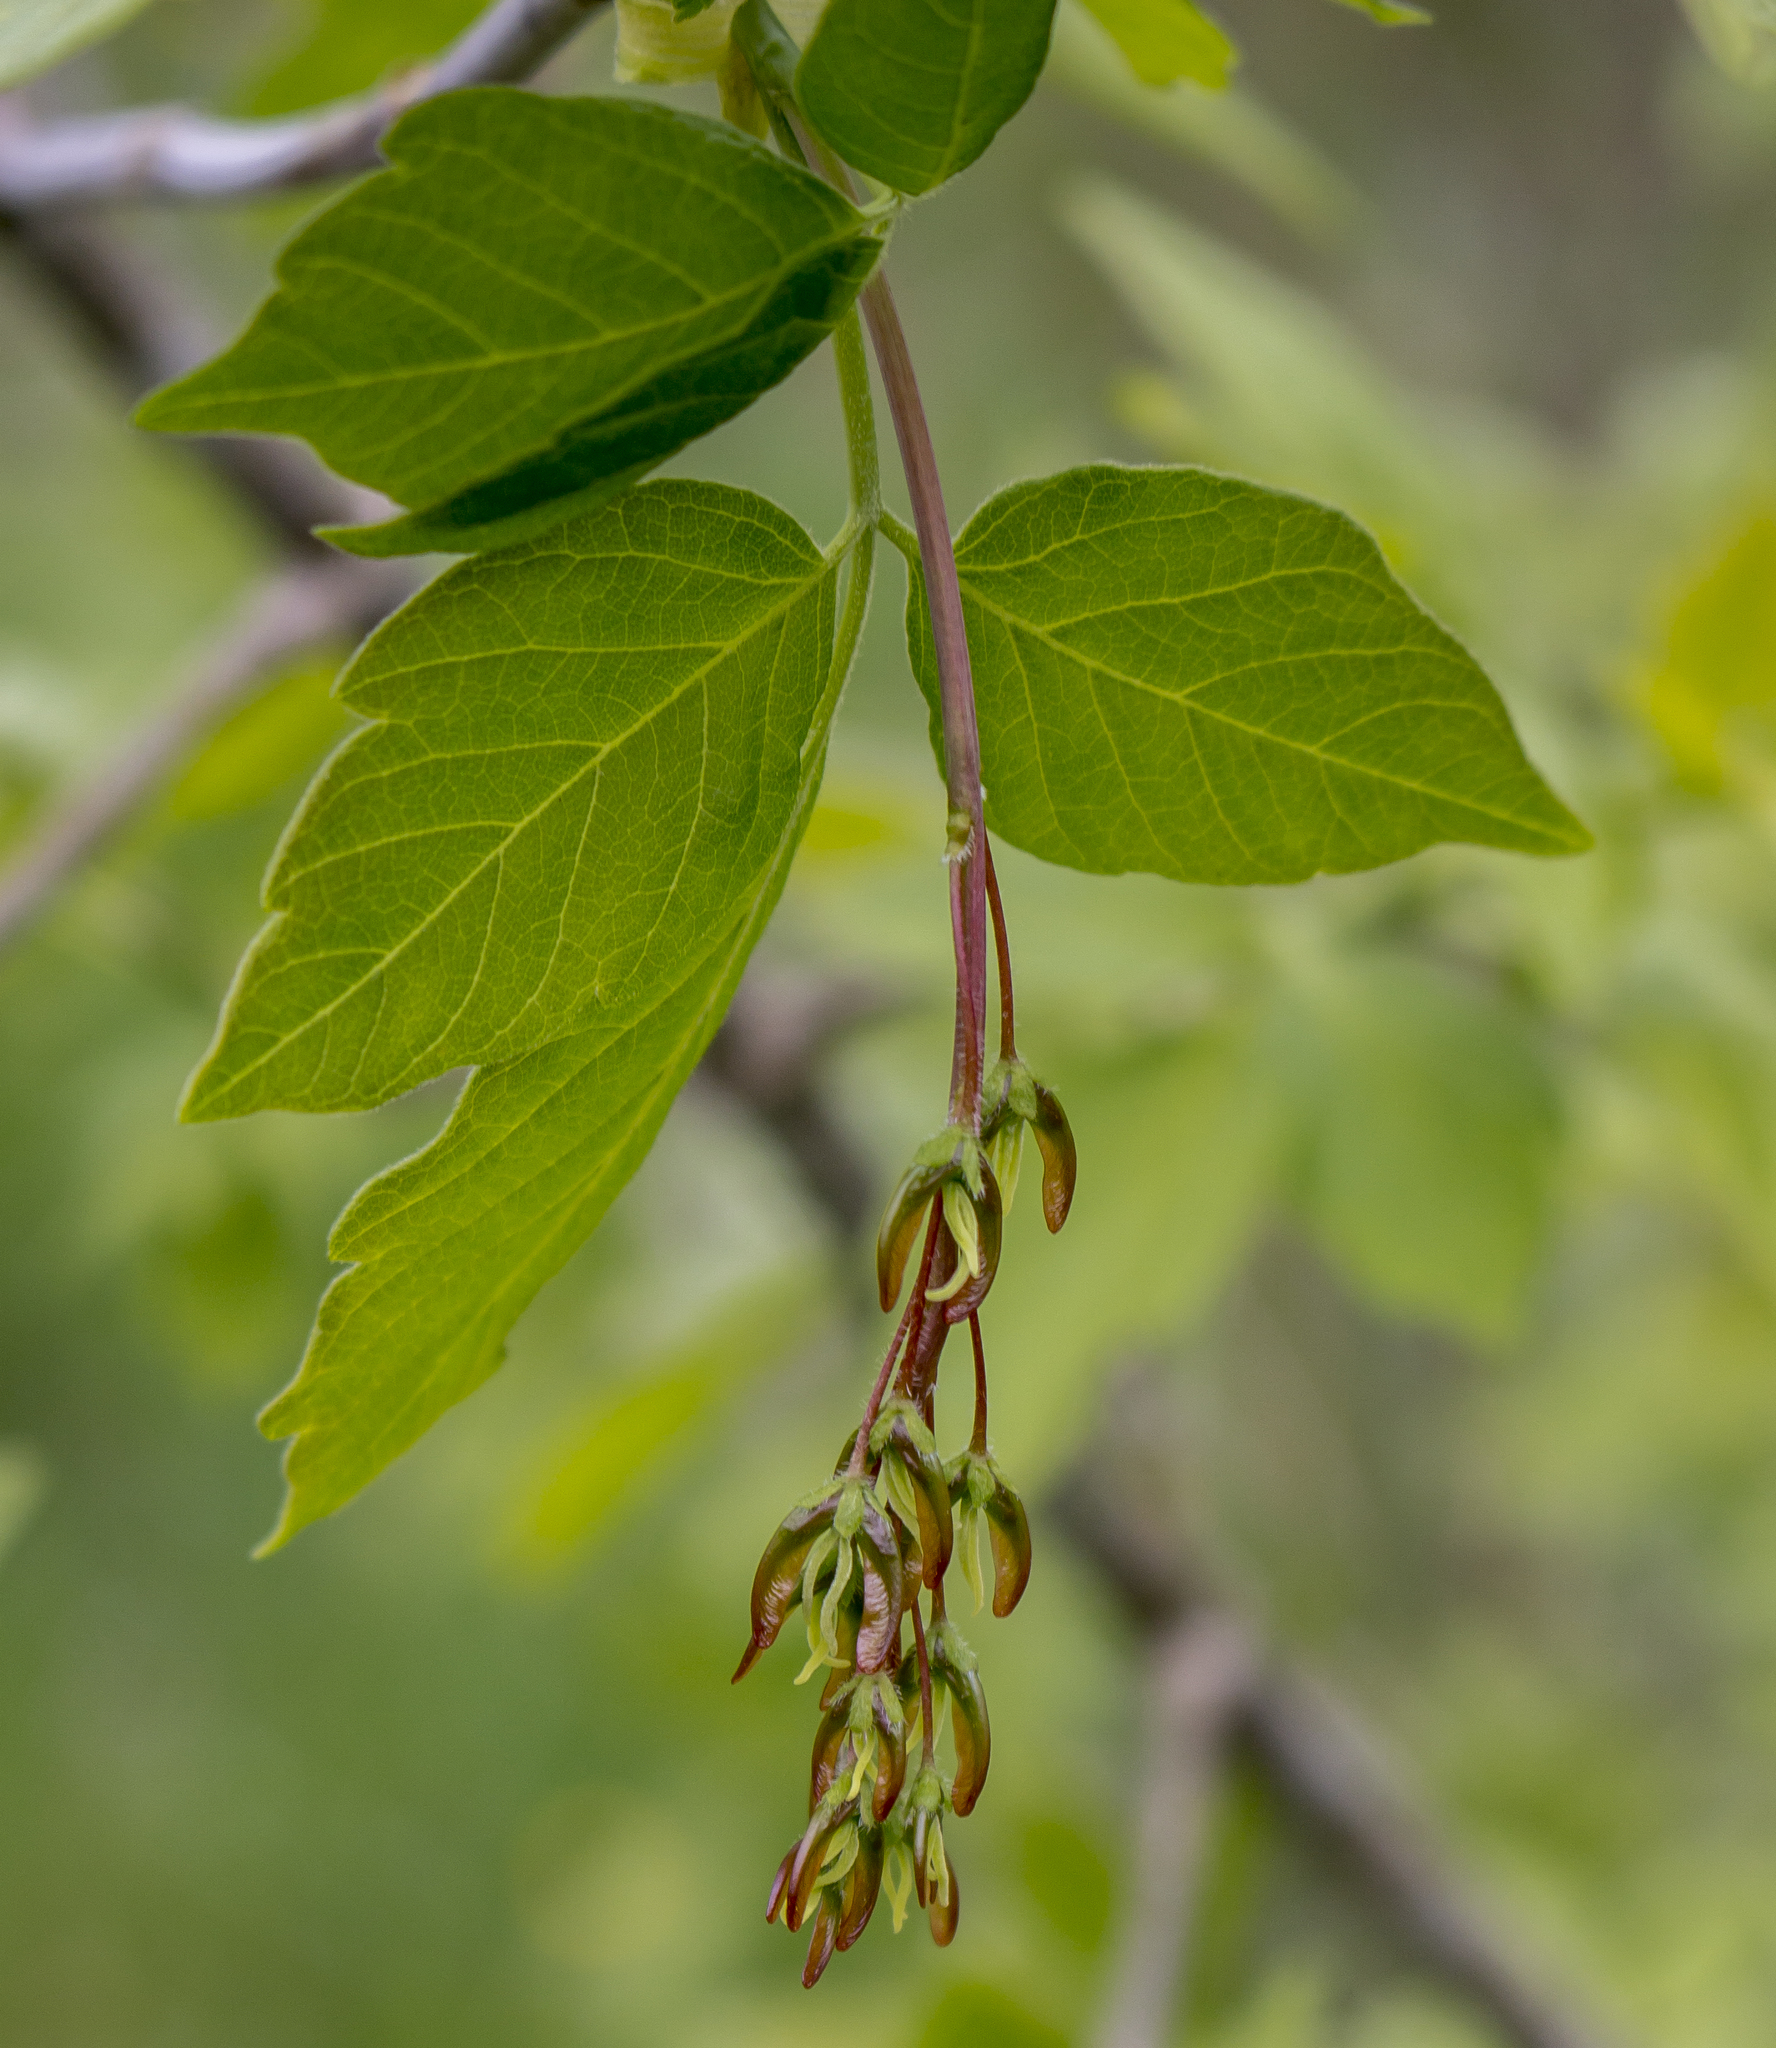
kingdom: Plantae
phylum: Tracheophyta
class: Magnoliopsida
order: Sapindales
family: Sapindaceae
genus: Acer
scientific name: Acer negundo
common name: Ashleaf maple
